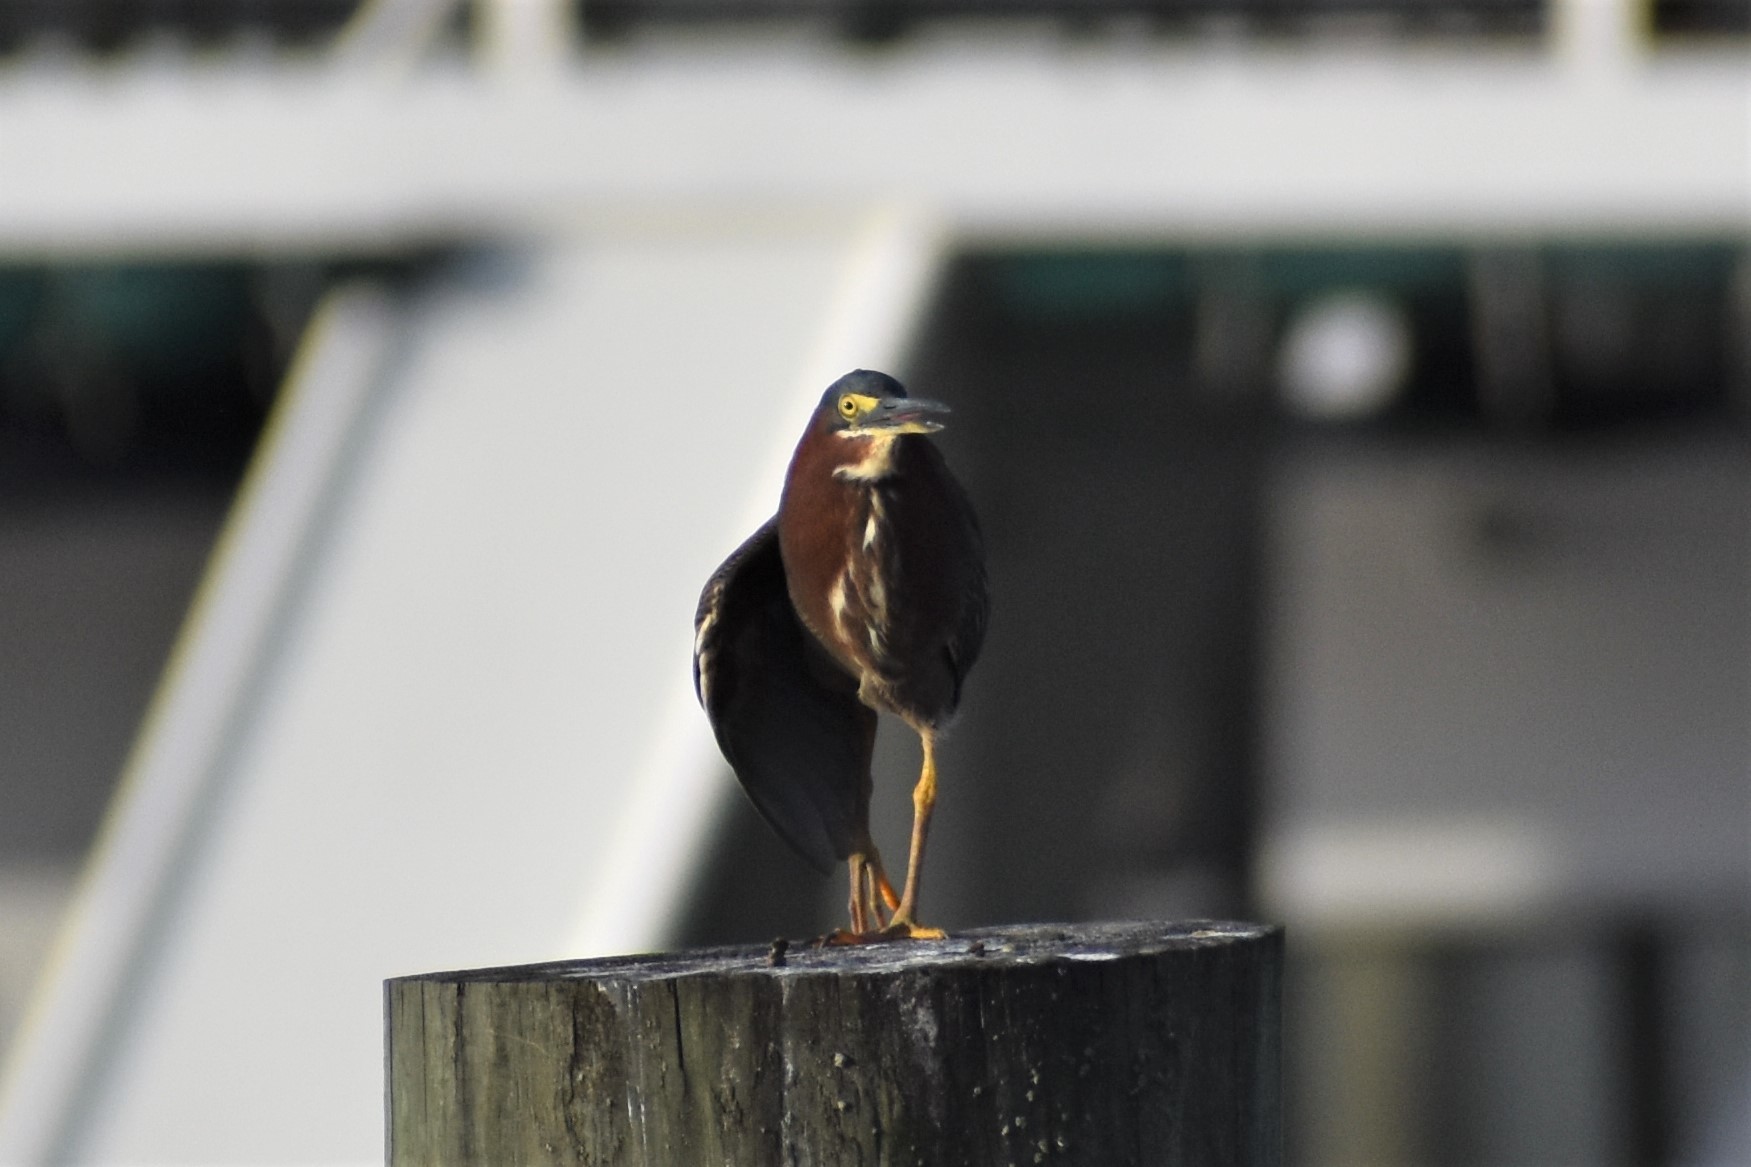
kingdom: Animalia
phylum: Chordata
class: Aves
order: Pelecaniformes
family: Ardeidae
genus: Butorides
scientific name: Butorides virescens
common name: Green heron
